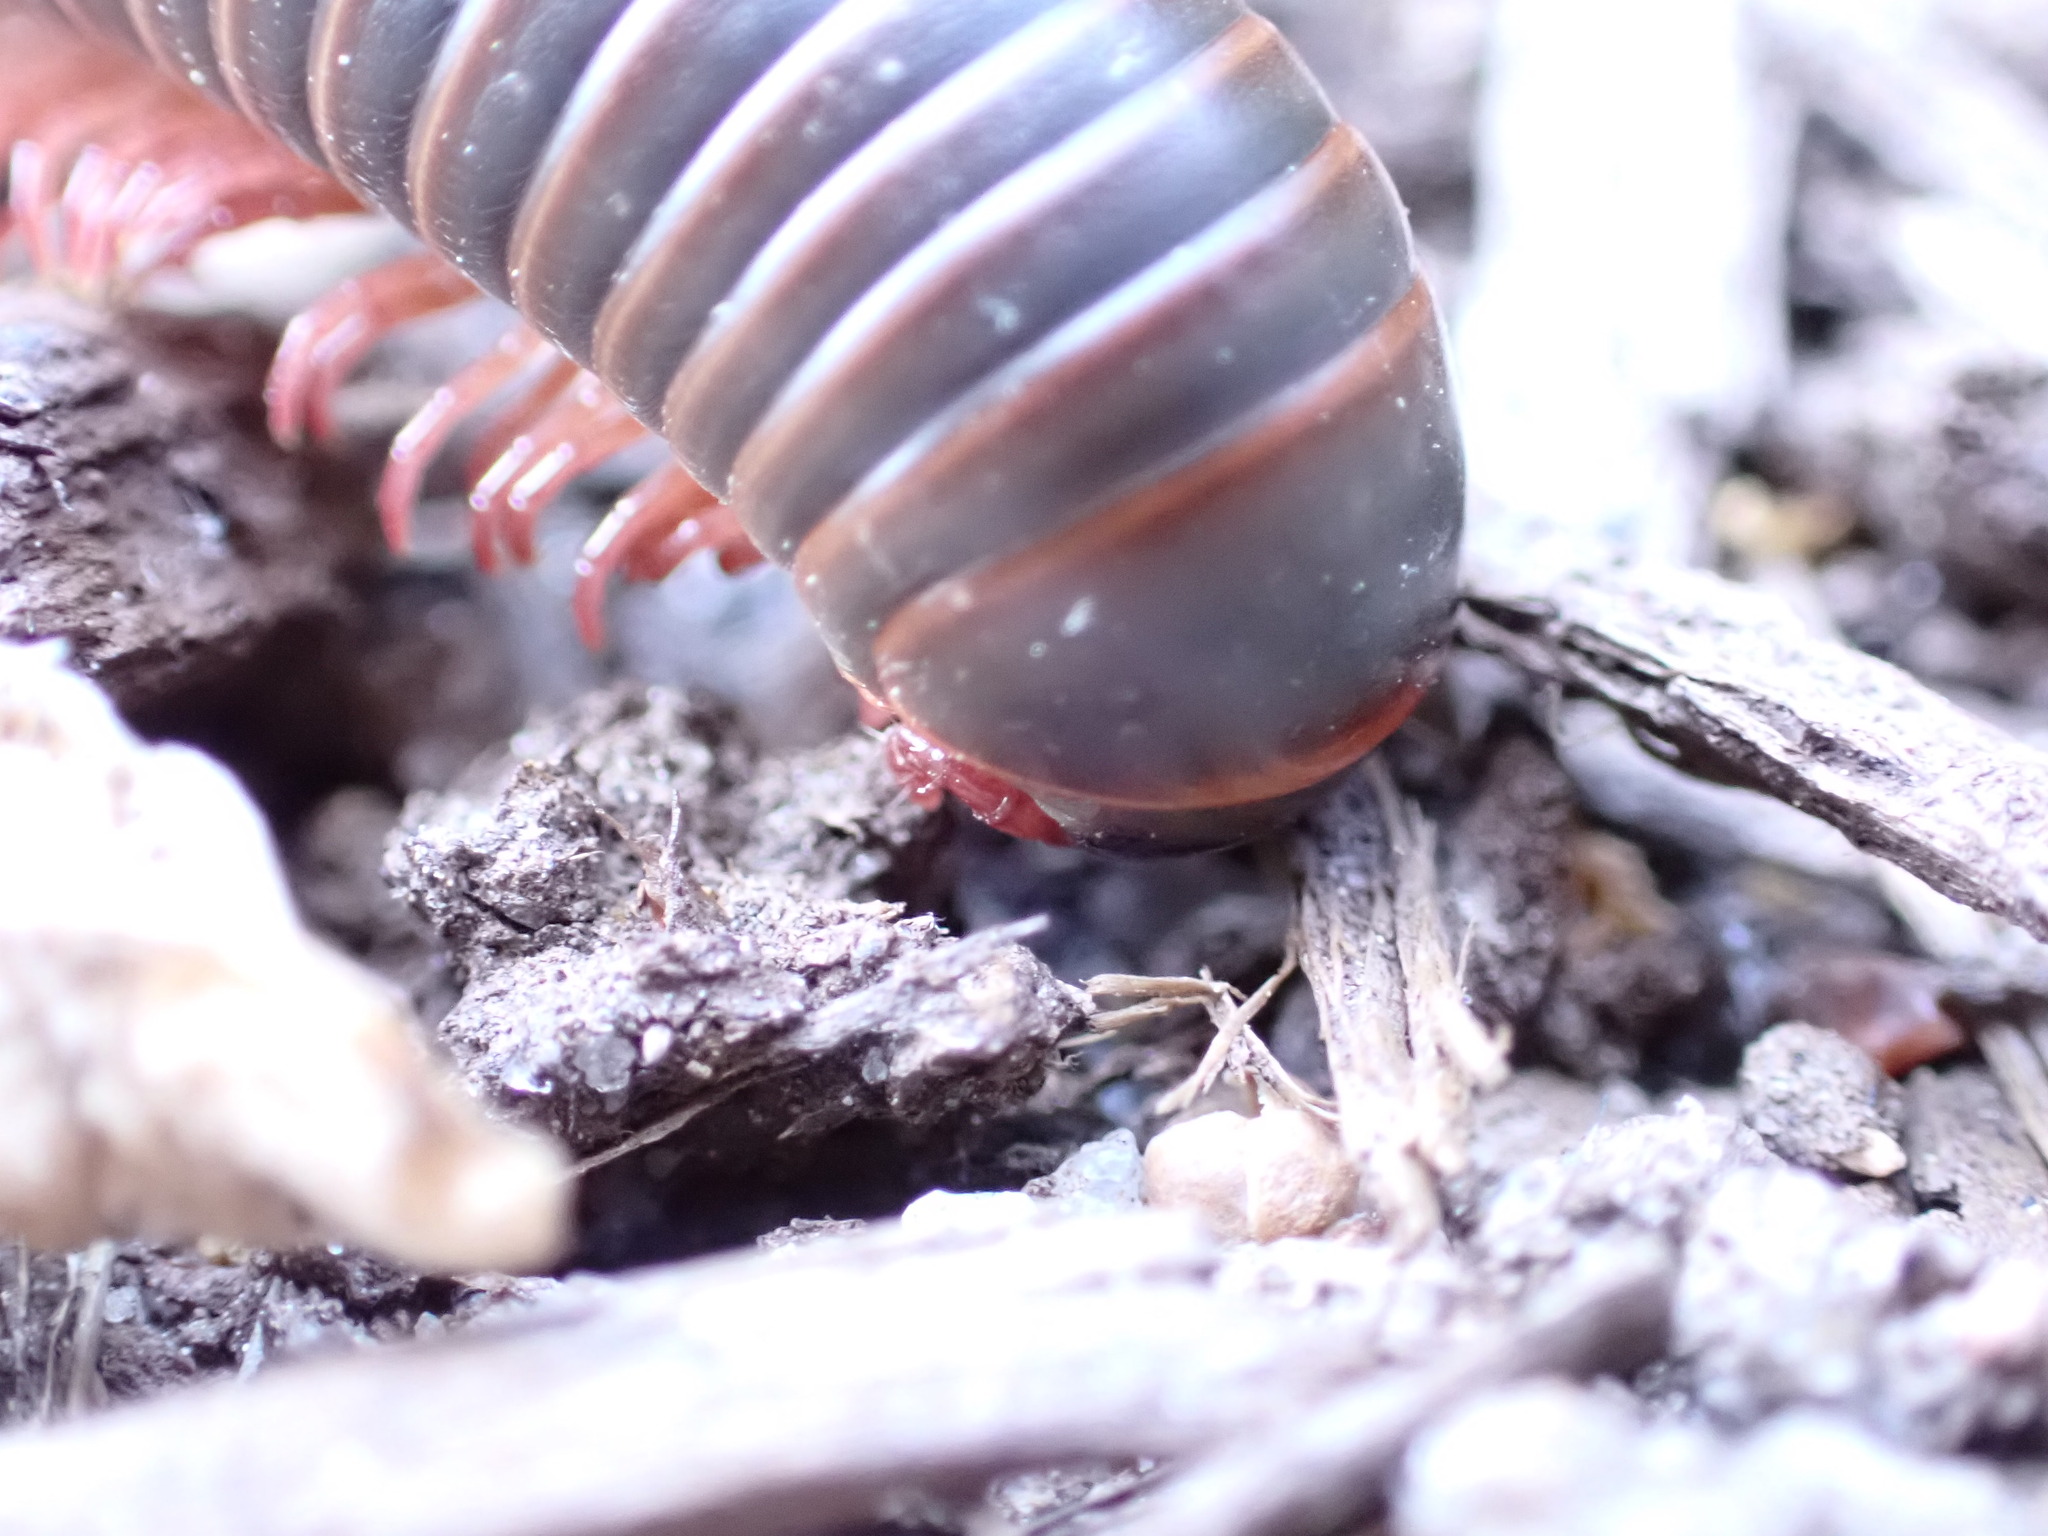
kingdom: Animalia
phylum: Arthropoda
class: Diplopoda
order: Spirobolida
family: Spirobolidae
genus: Narceus
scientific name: Narceus americanus
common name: American giant millipede
